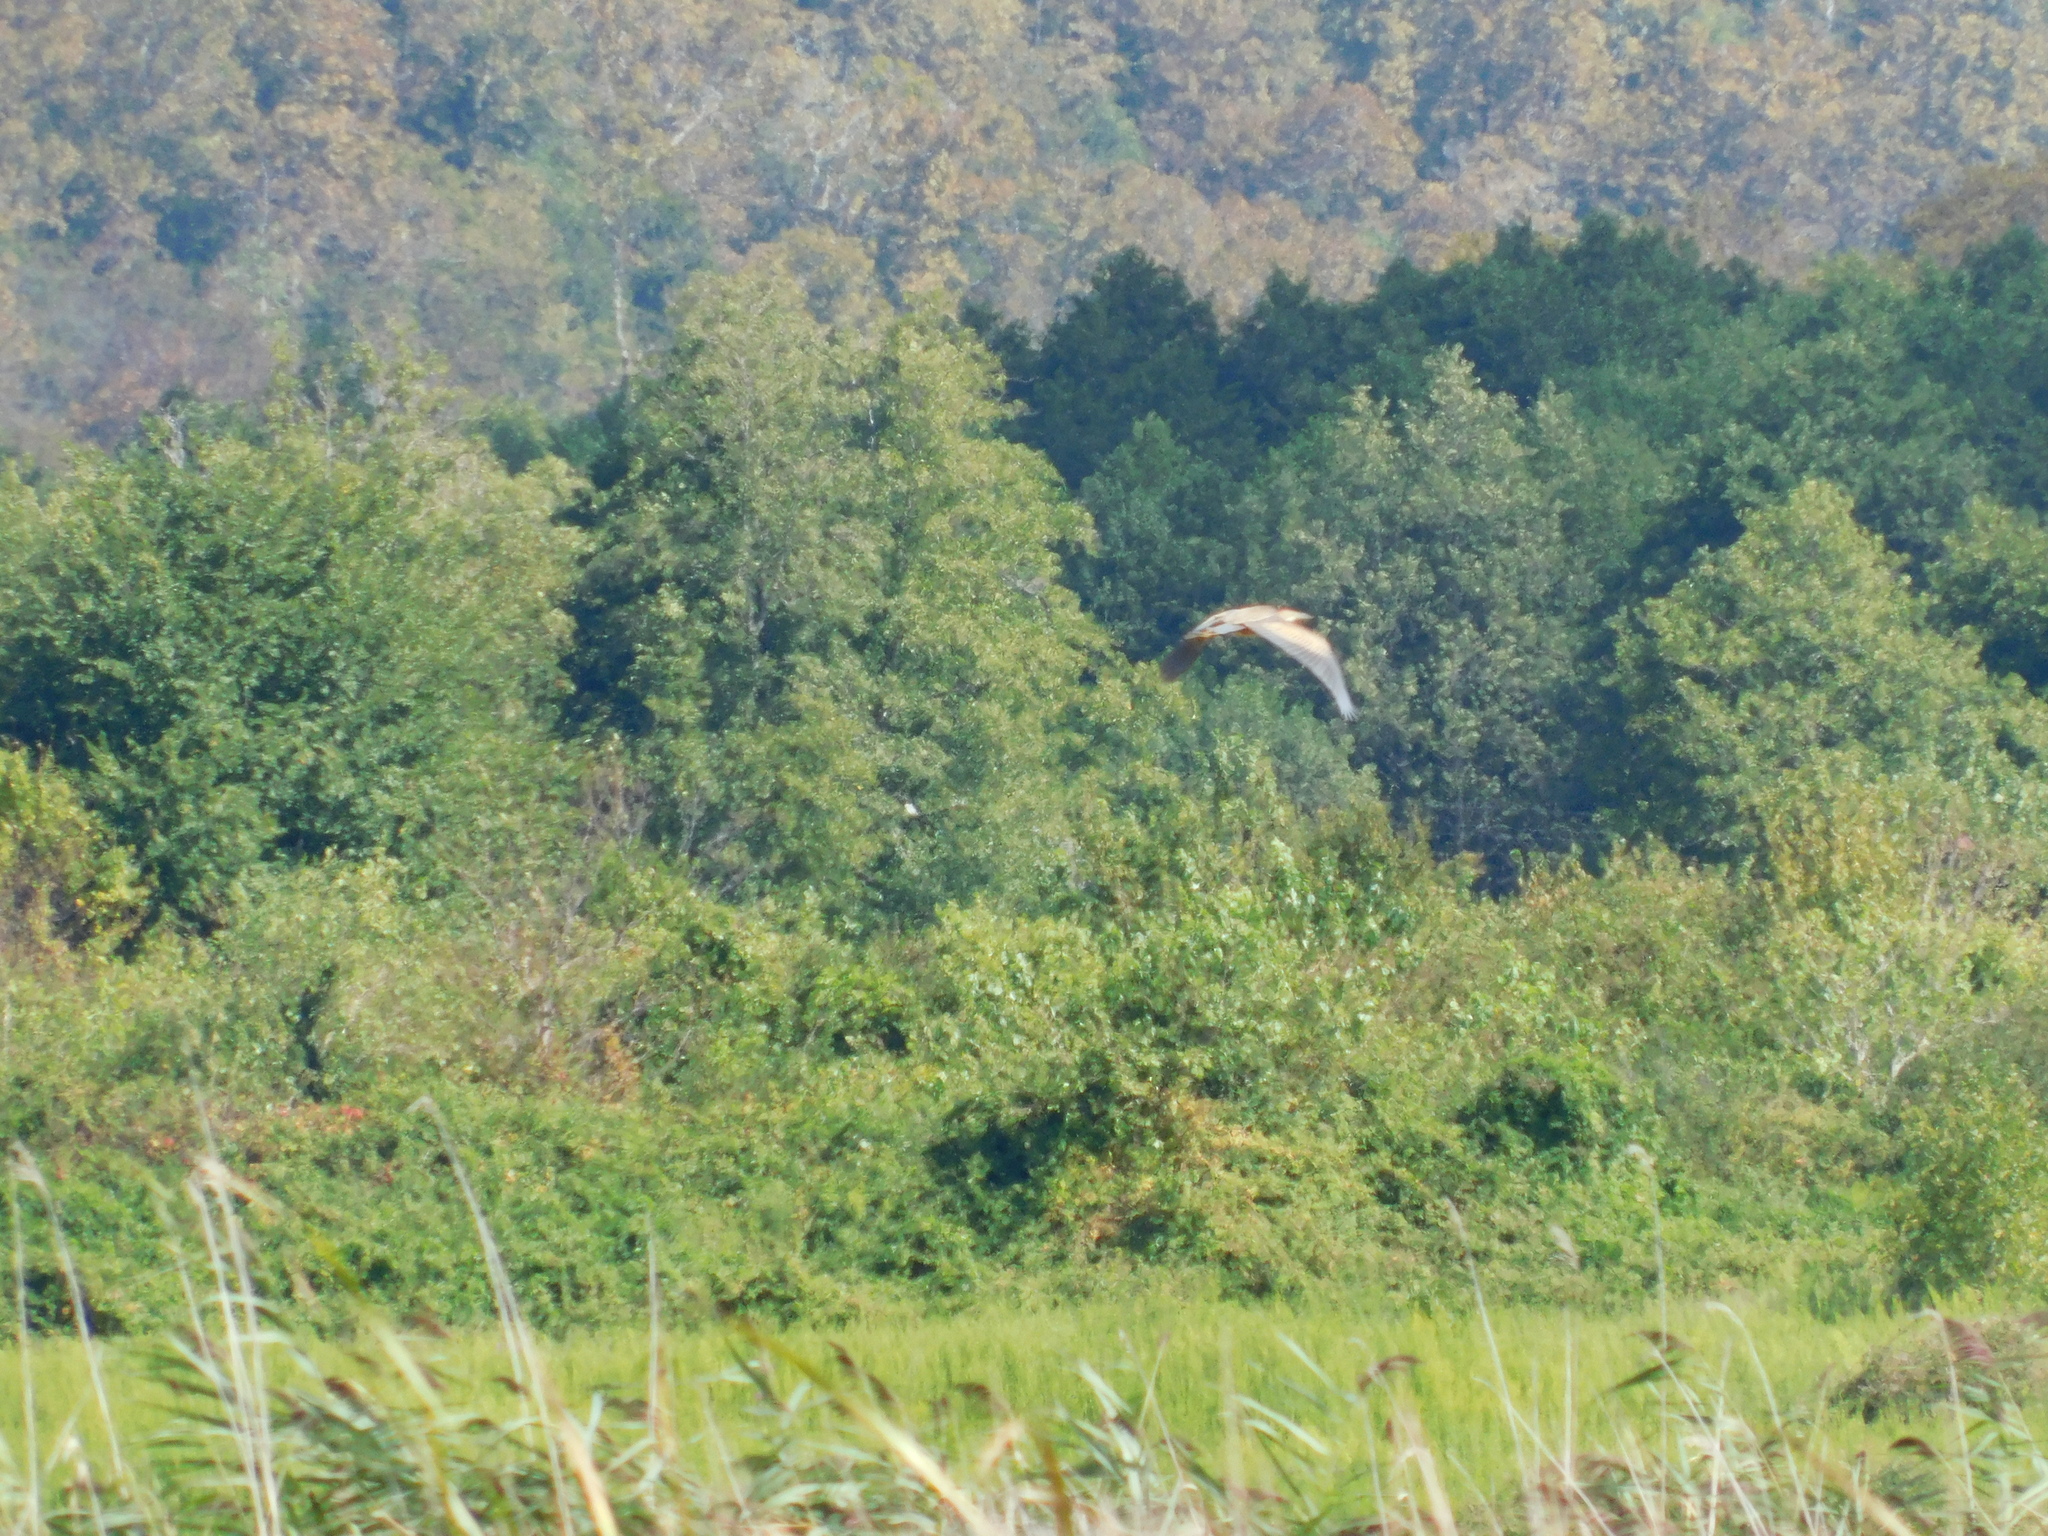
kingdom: Animalia
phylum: Chordata
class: Aves
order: Pelecaniformes
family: Ardeidae
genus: Ardea
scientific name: Ardea purpurea
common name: Purple heron
